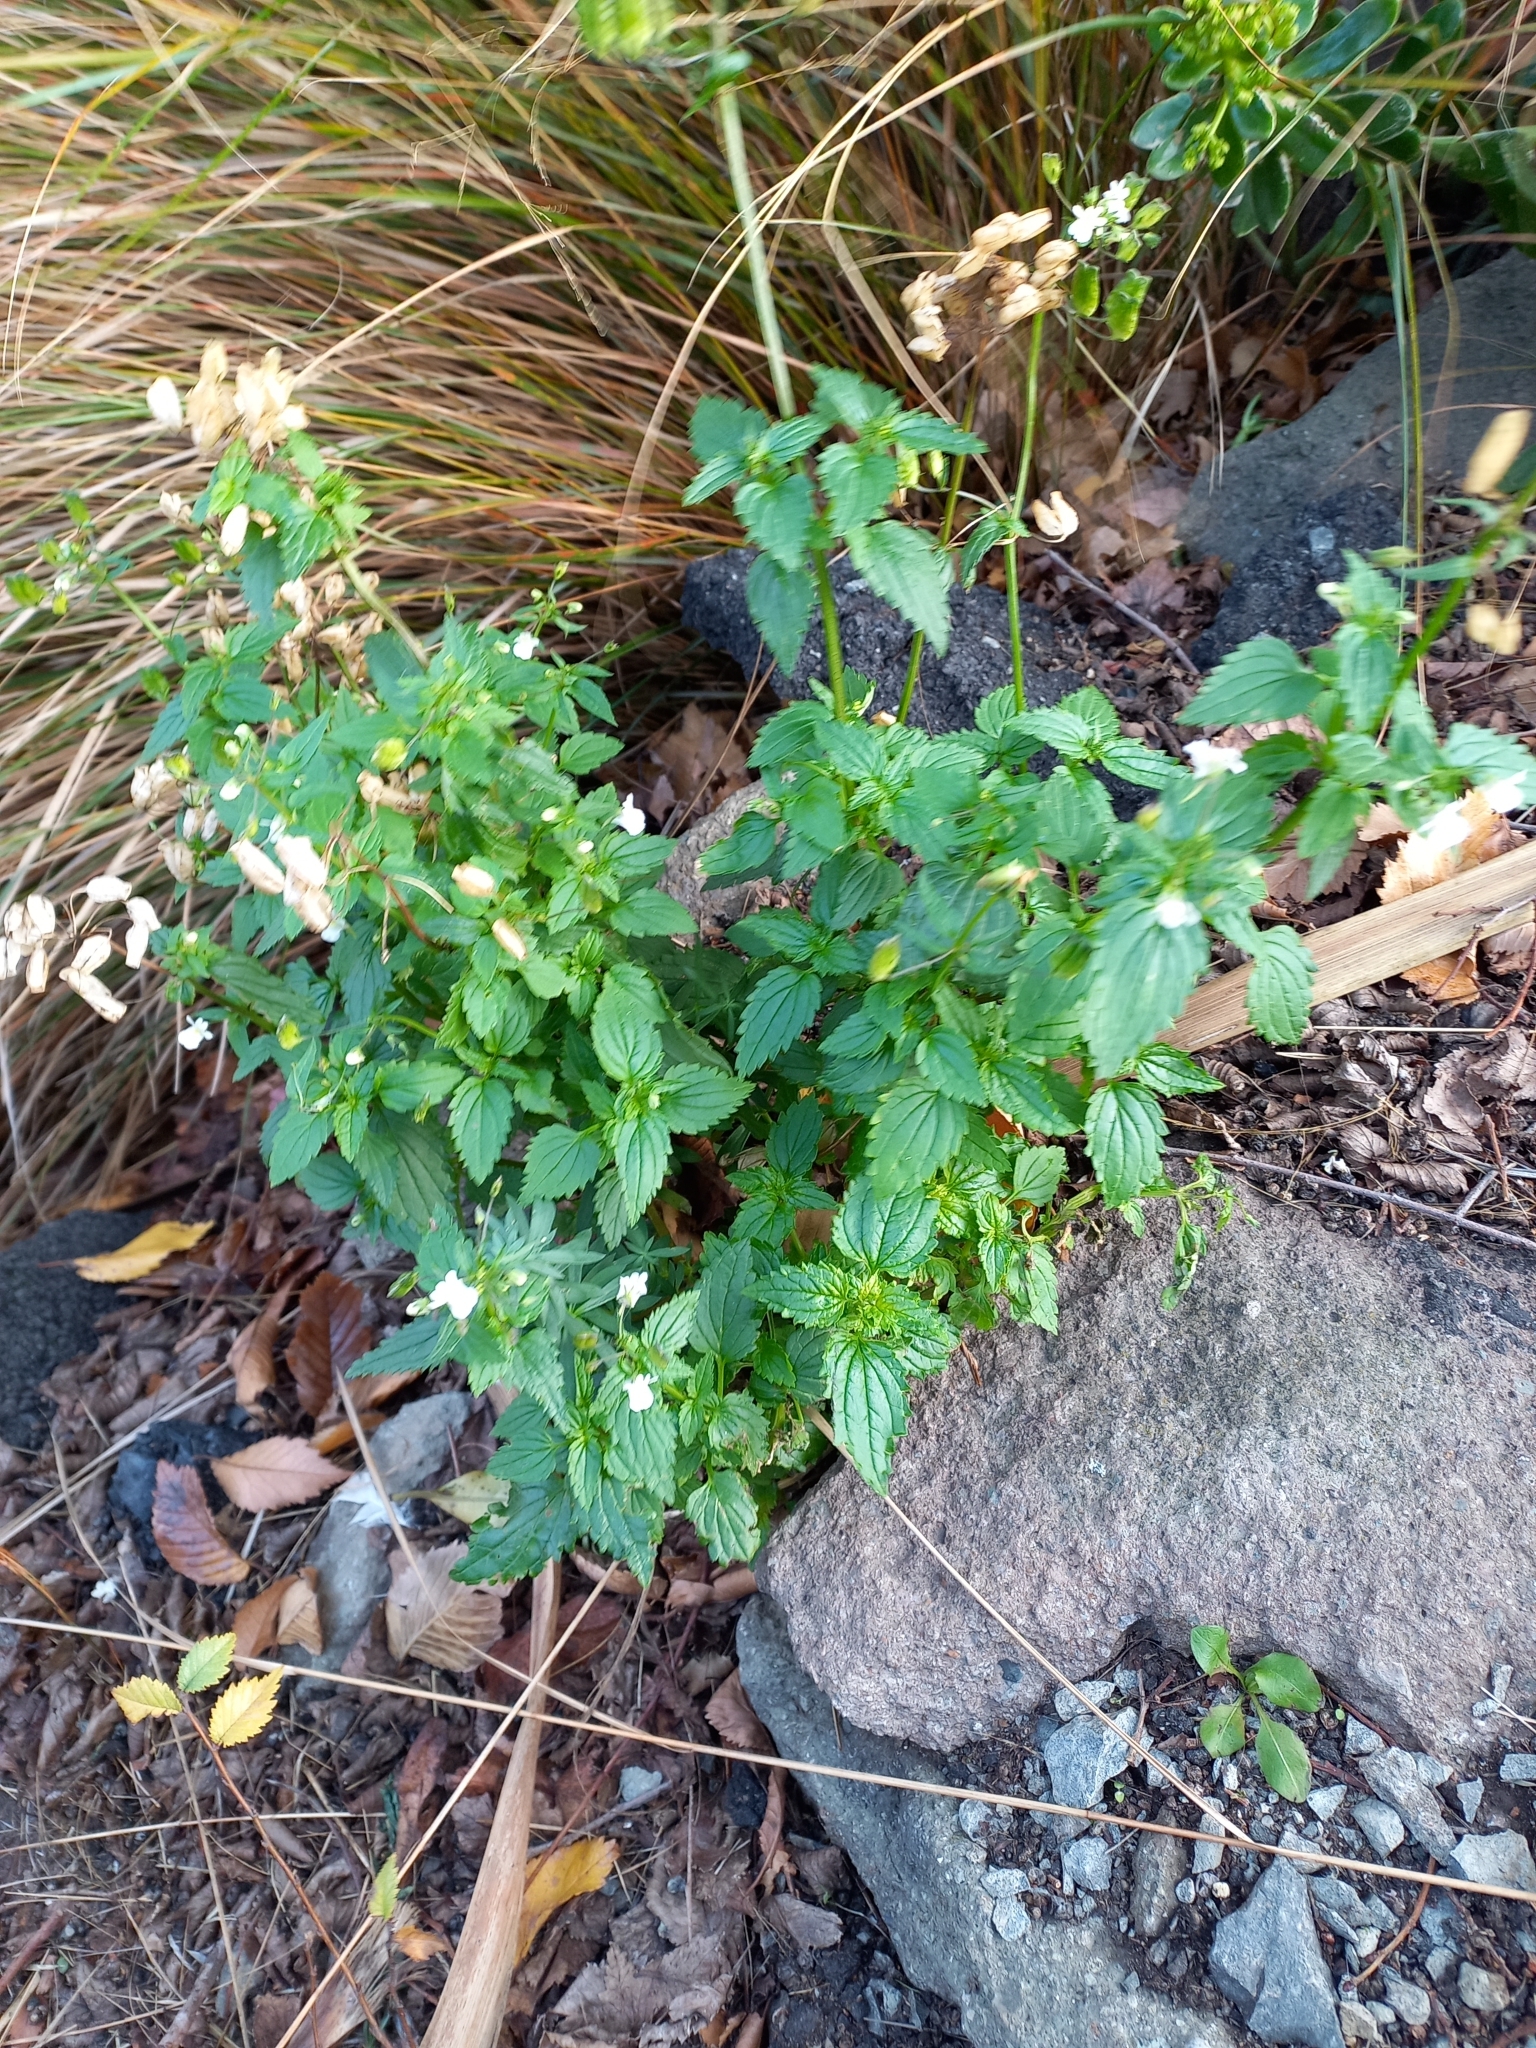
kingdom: Plantae
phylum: Tracheophyta
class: Magnoliopsida
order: Lamiales
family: Scrophulariaceae
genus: Nemesia
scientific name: Nemesia floribunda
